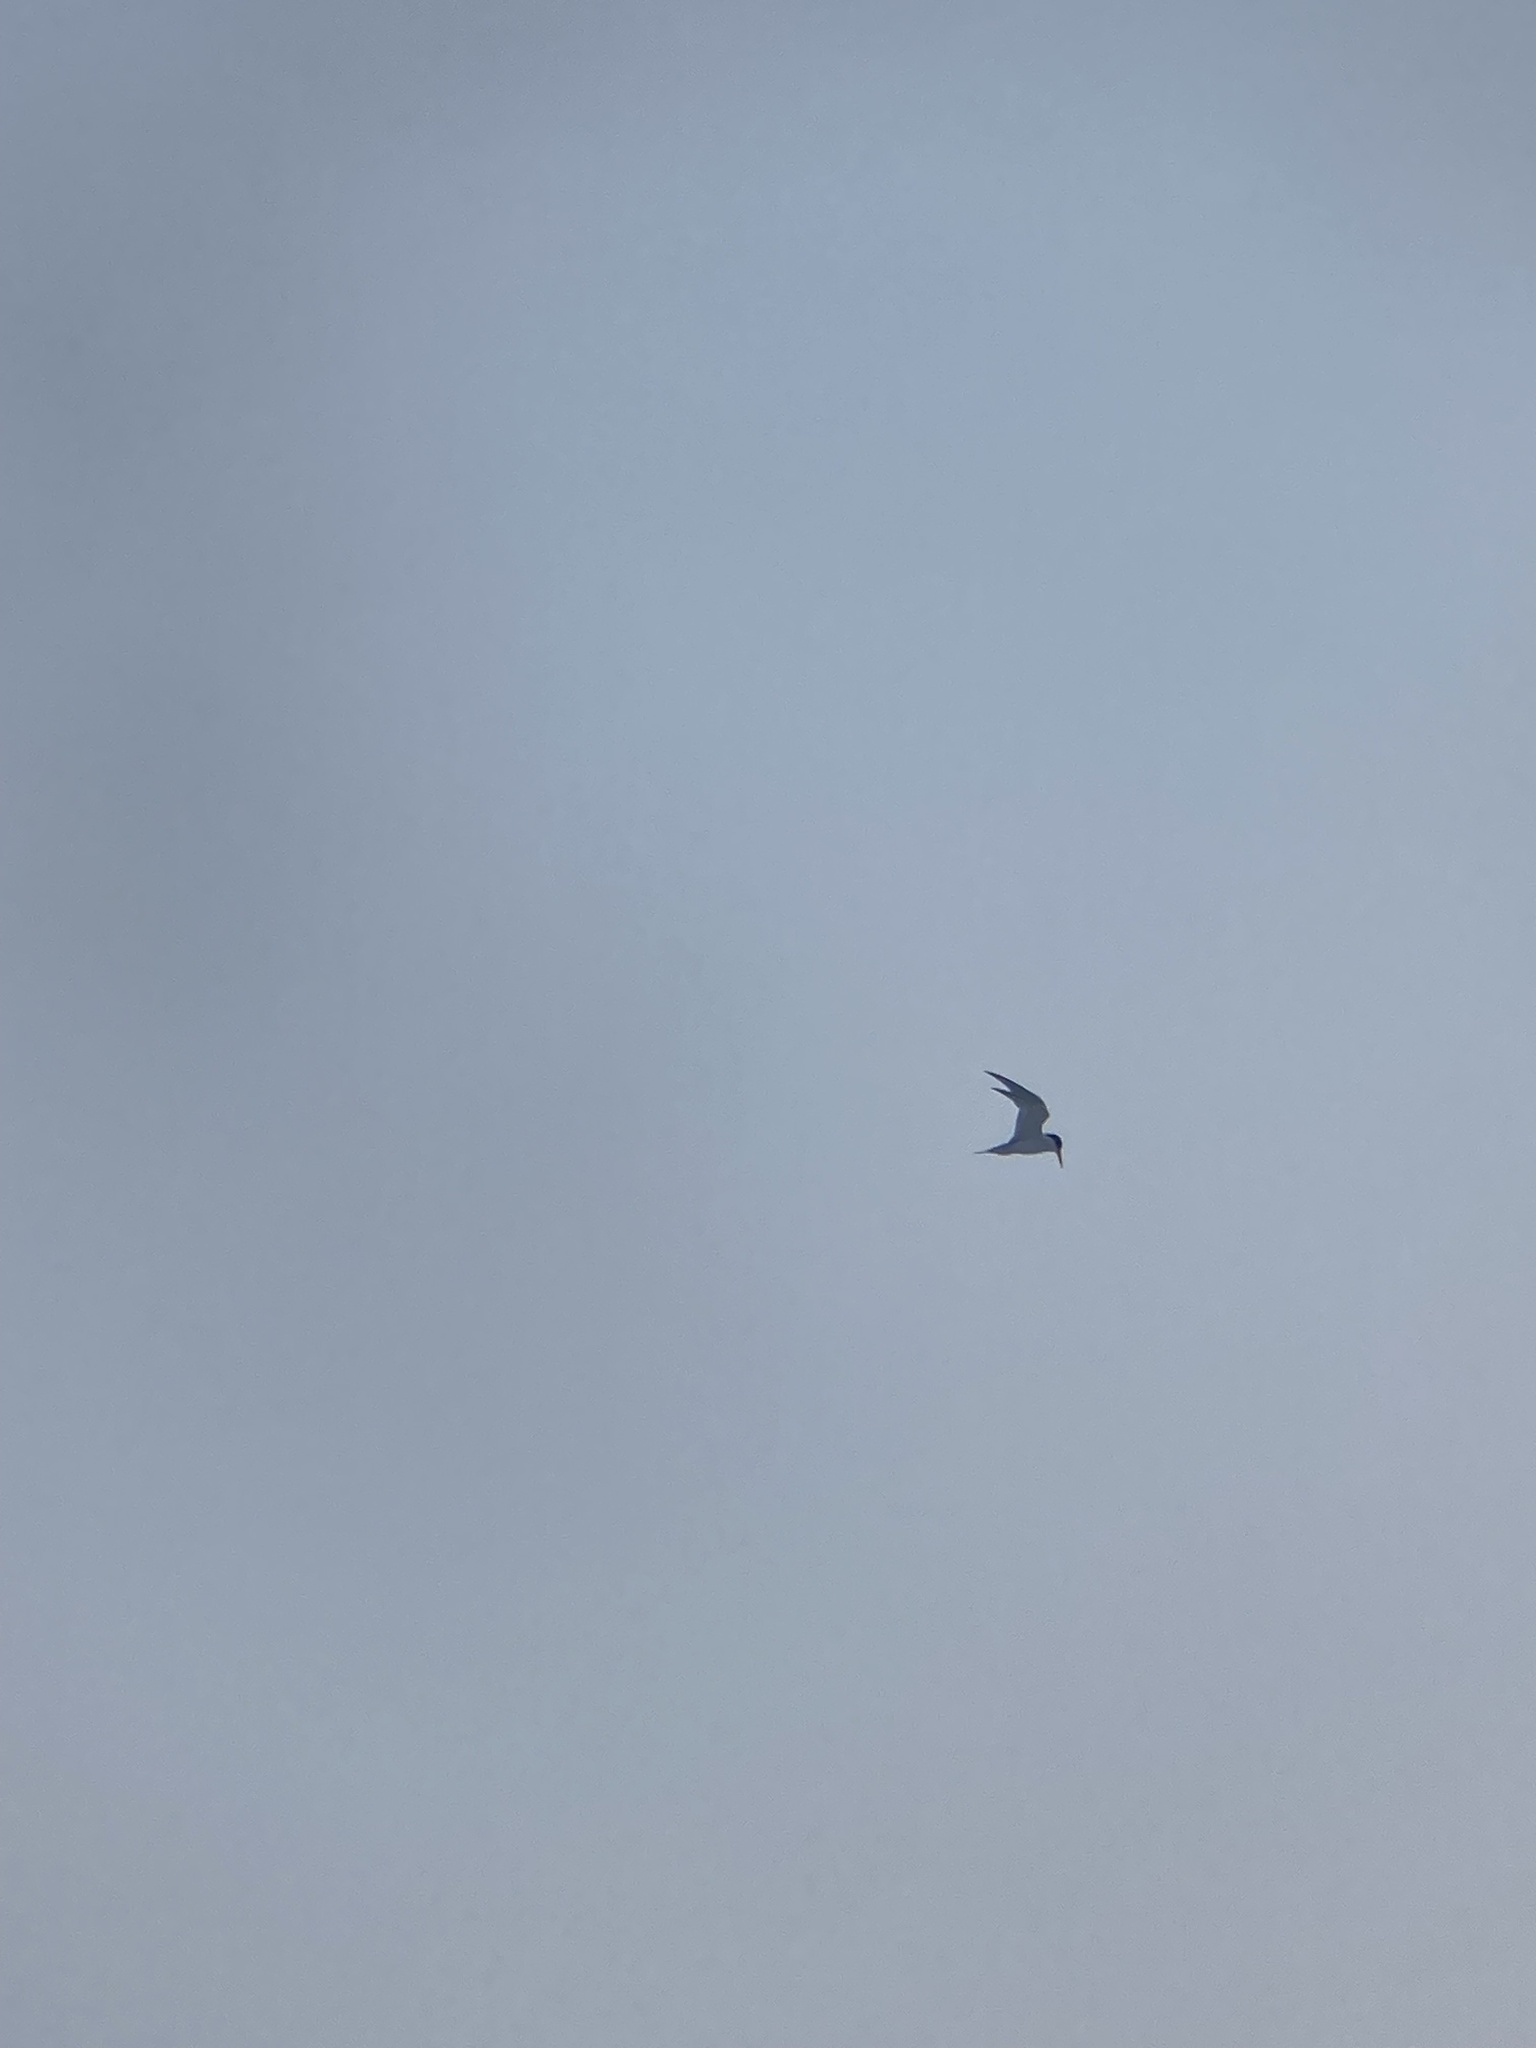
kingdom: Animalia
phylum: Chordata
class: Aves
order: Charadriiformes
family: Laridae
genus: Sternula
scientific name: Sternula antillarum
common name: Least tern
